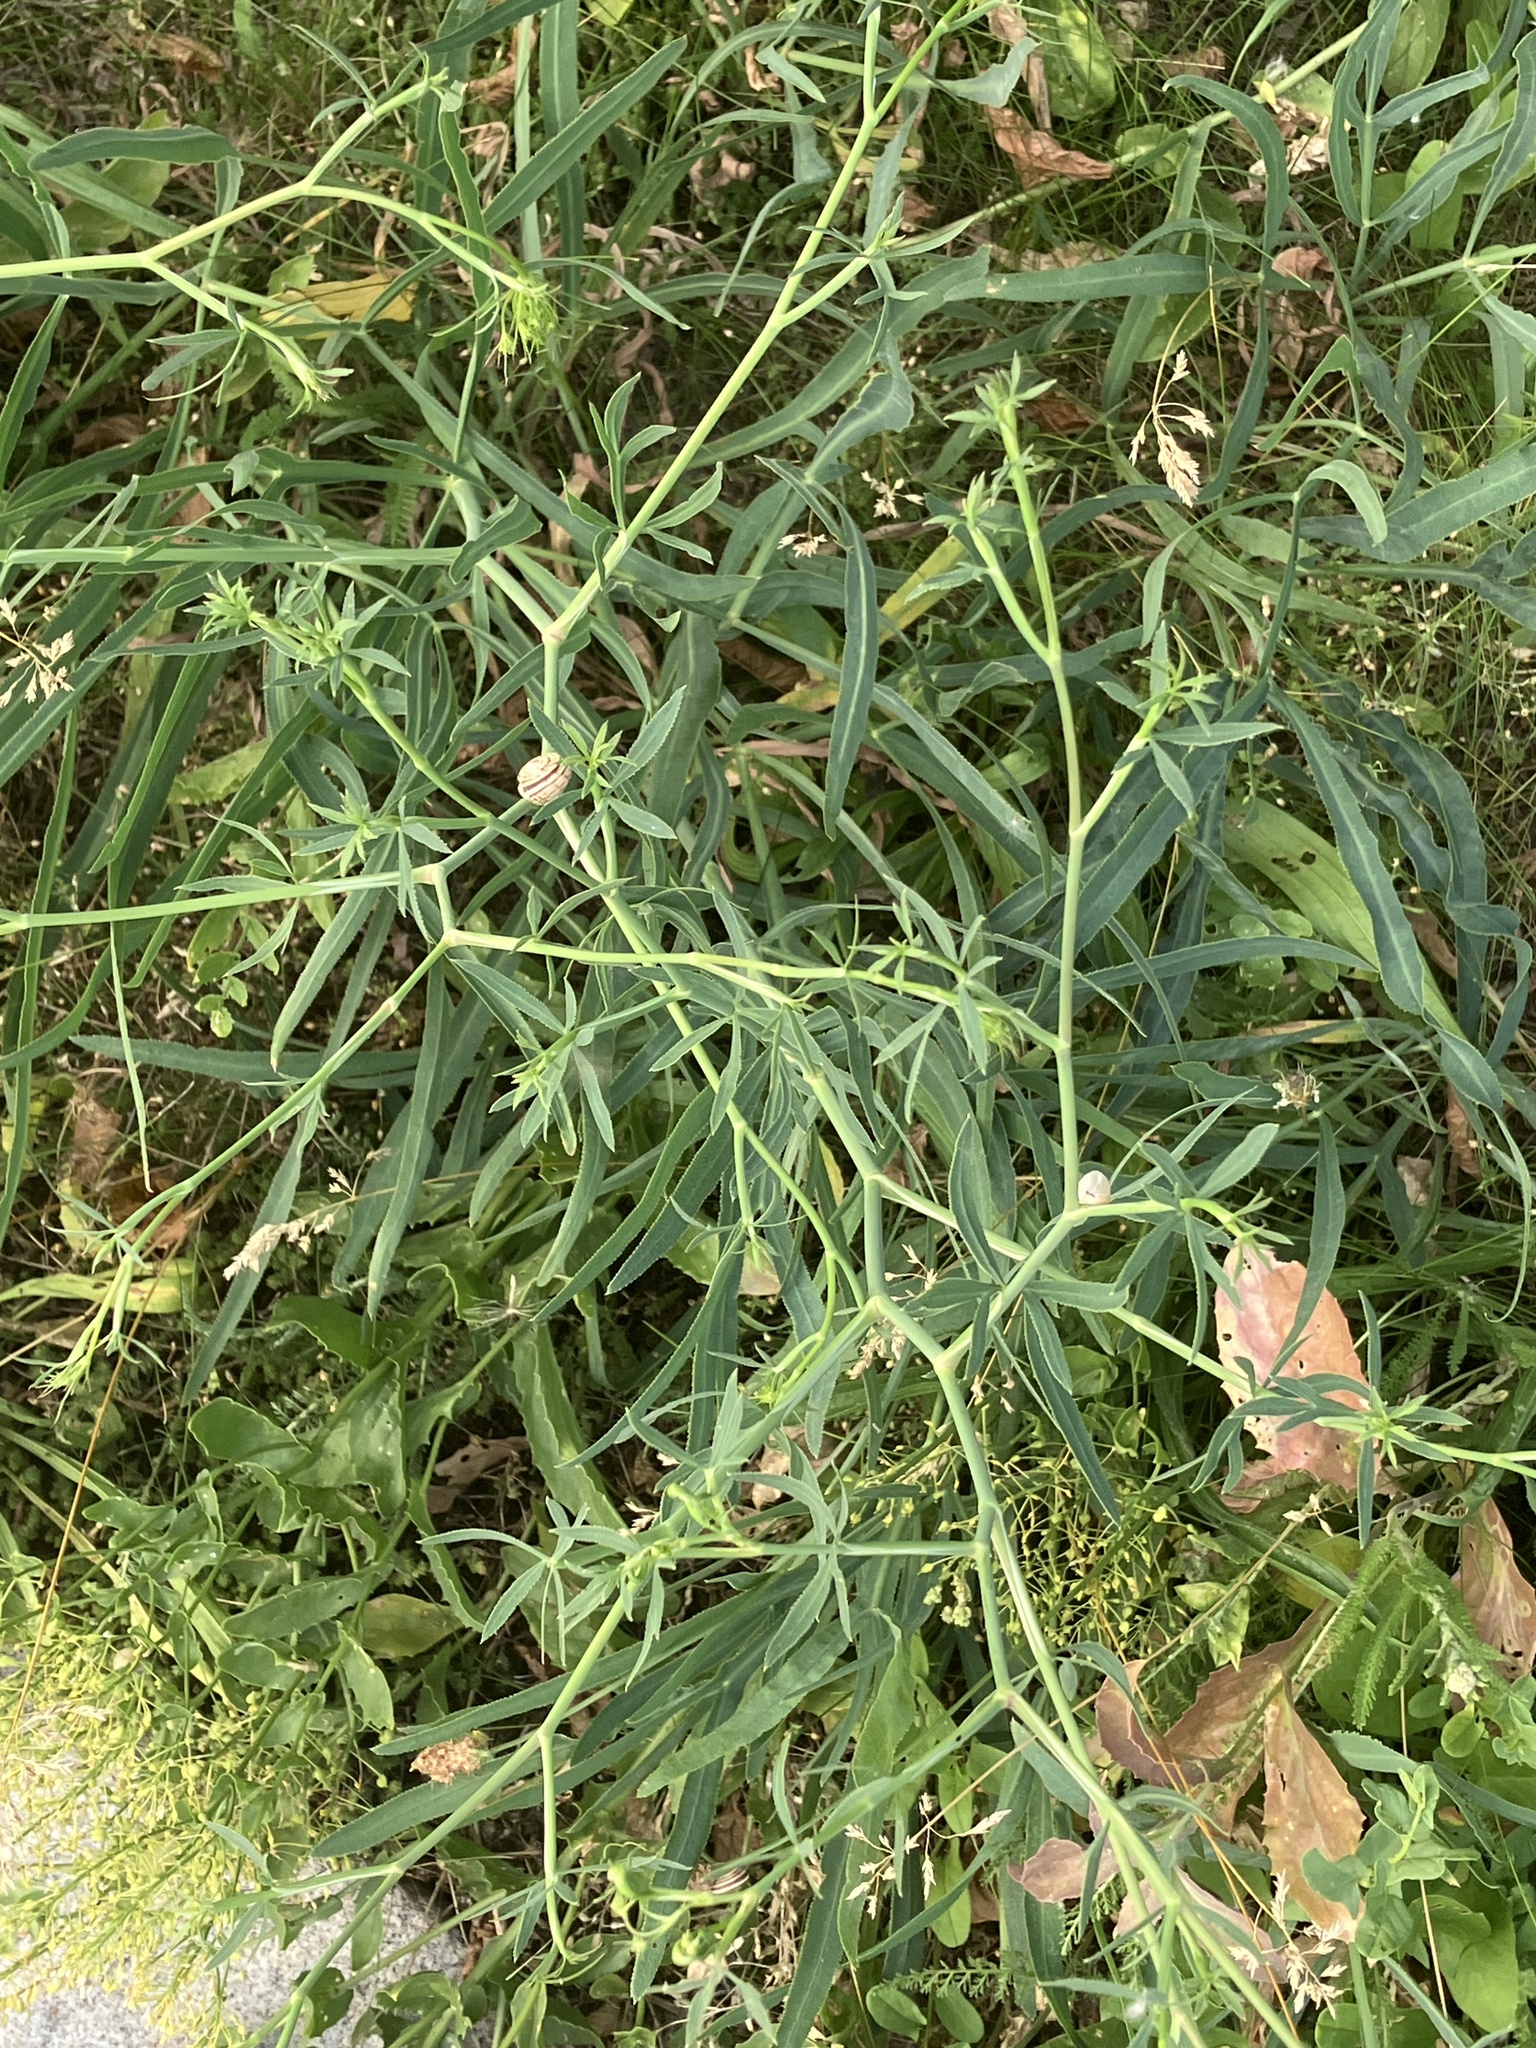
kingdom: Plantae
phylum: Tracheophyta
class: Magnoliopsida
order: Apiales
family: Apiaceae
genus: Falcaria
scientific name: Falcaria vulgaris
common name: Longleaf
